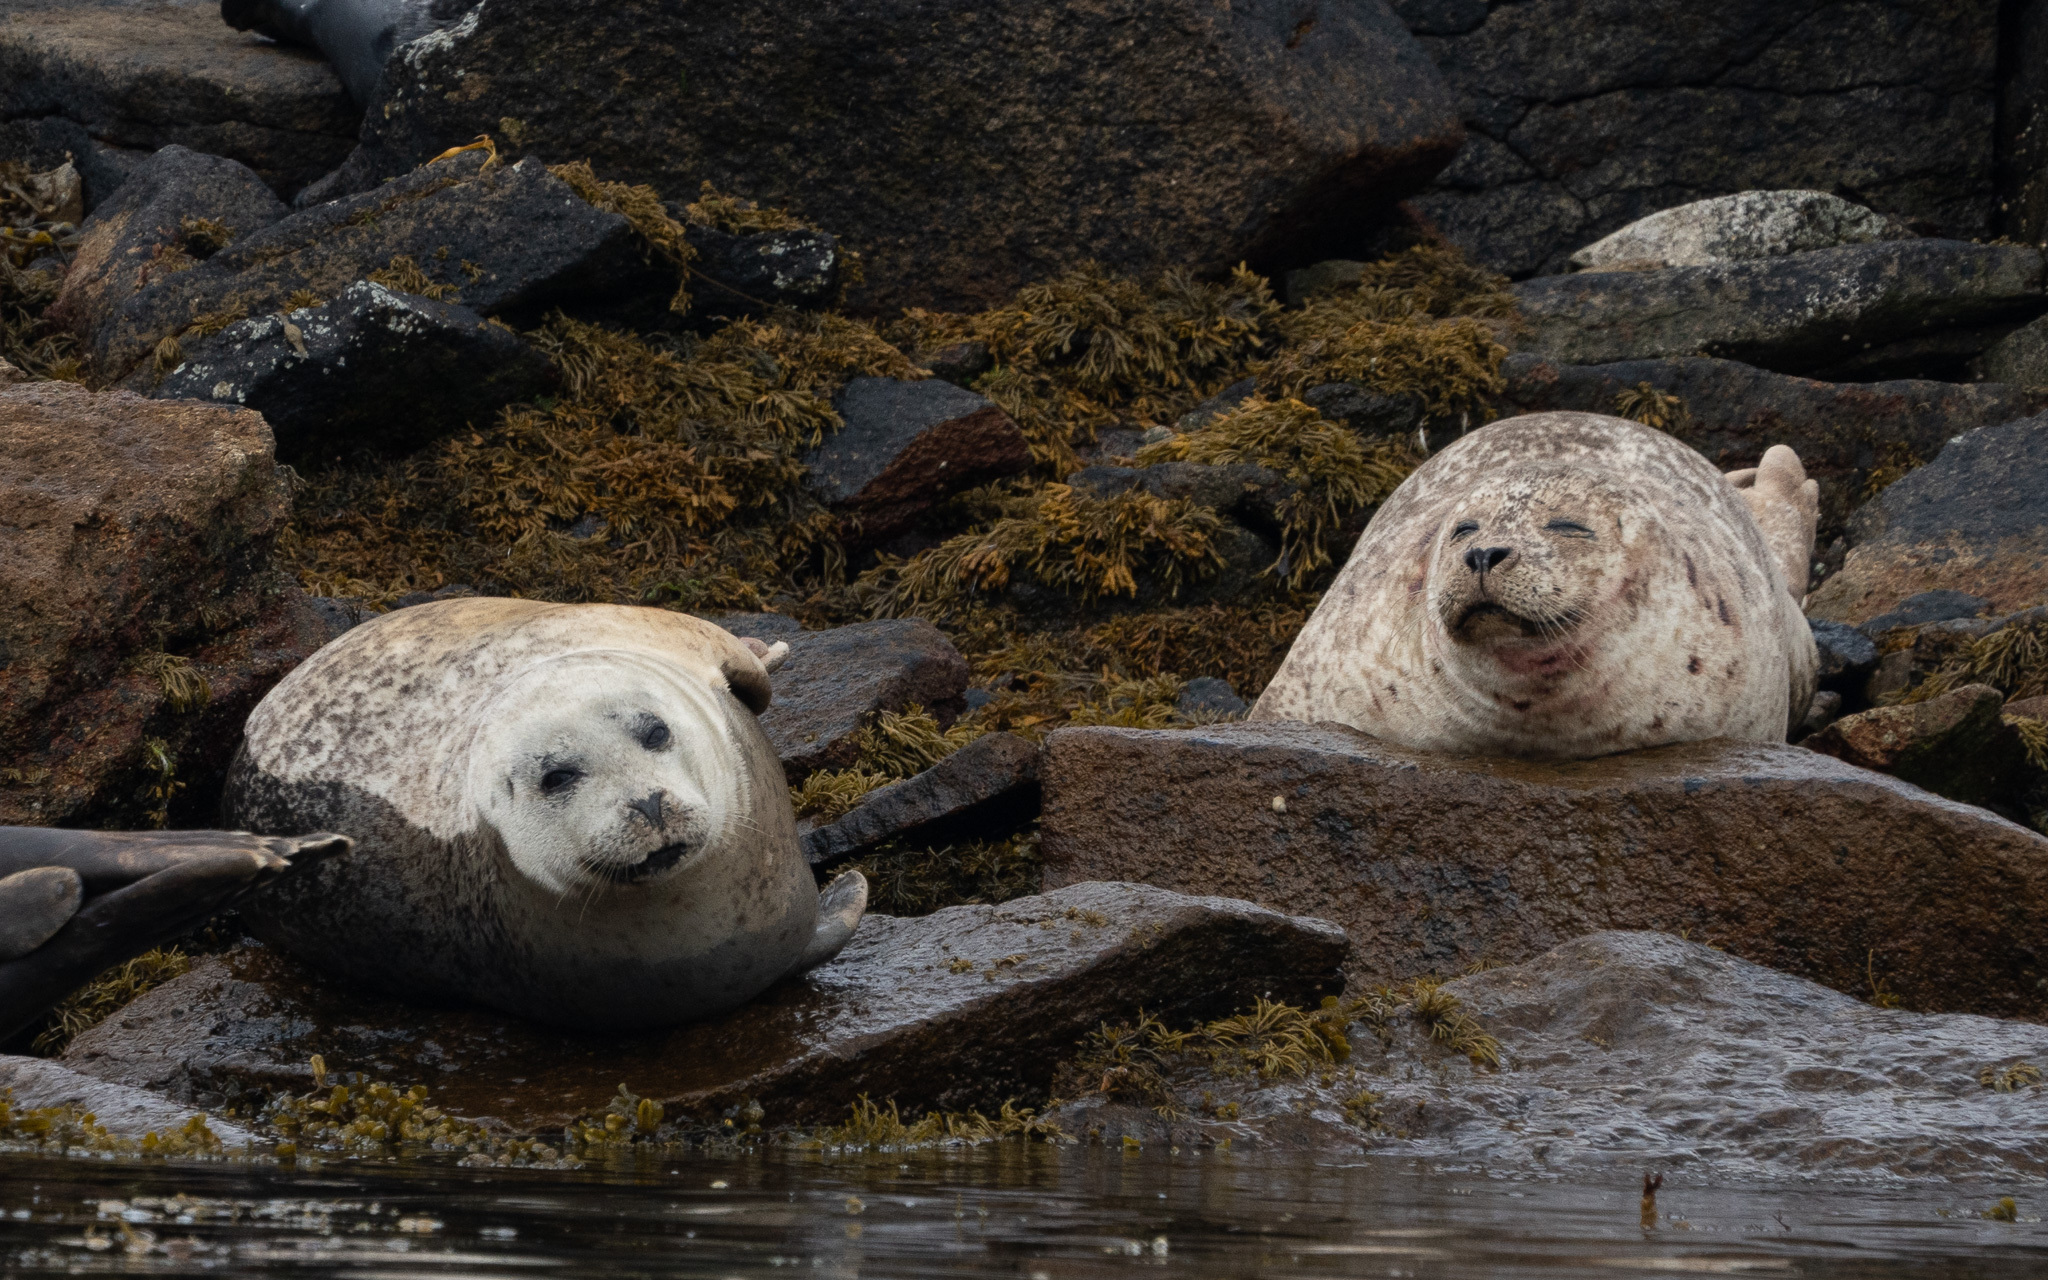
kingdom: Animalia
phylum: Chordata
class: Mammalia
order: Carnivora
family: Phocidae
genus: Phoca
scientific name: Phoca vitulina
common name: Harbor seal
